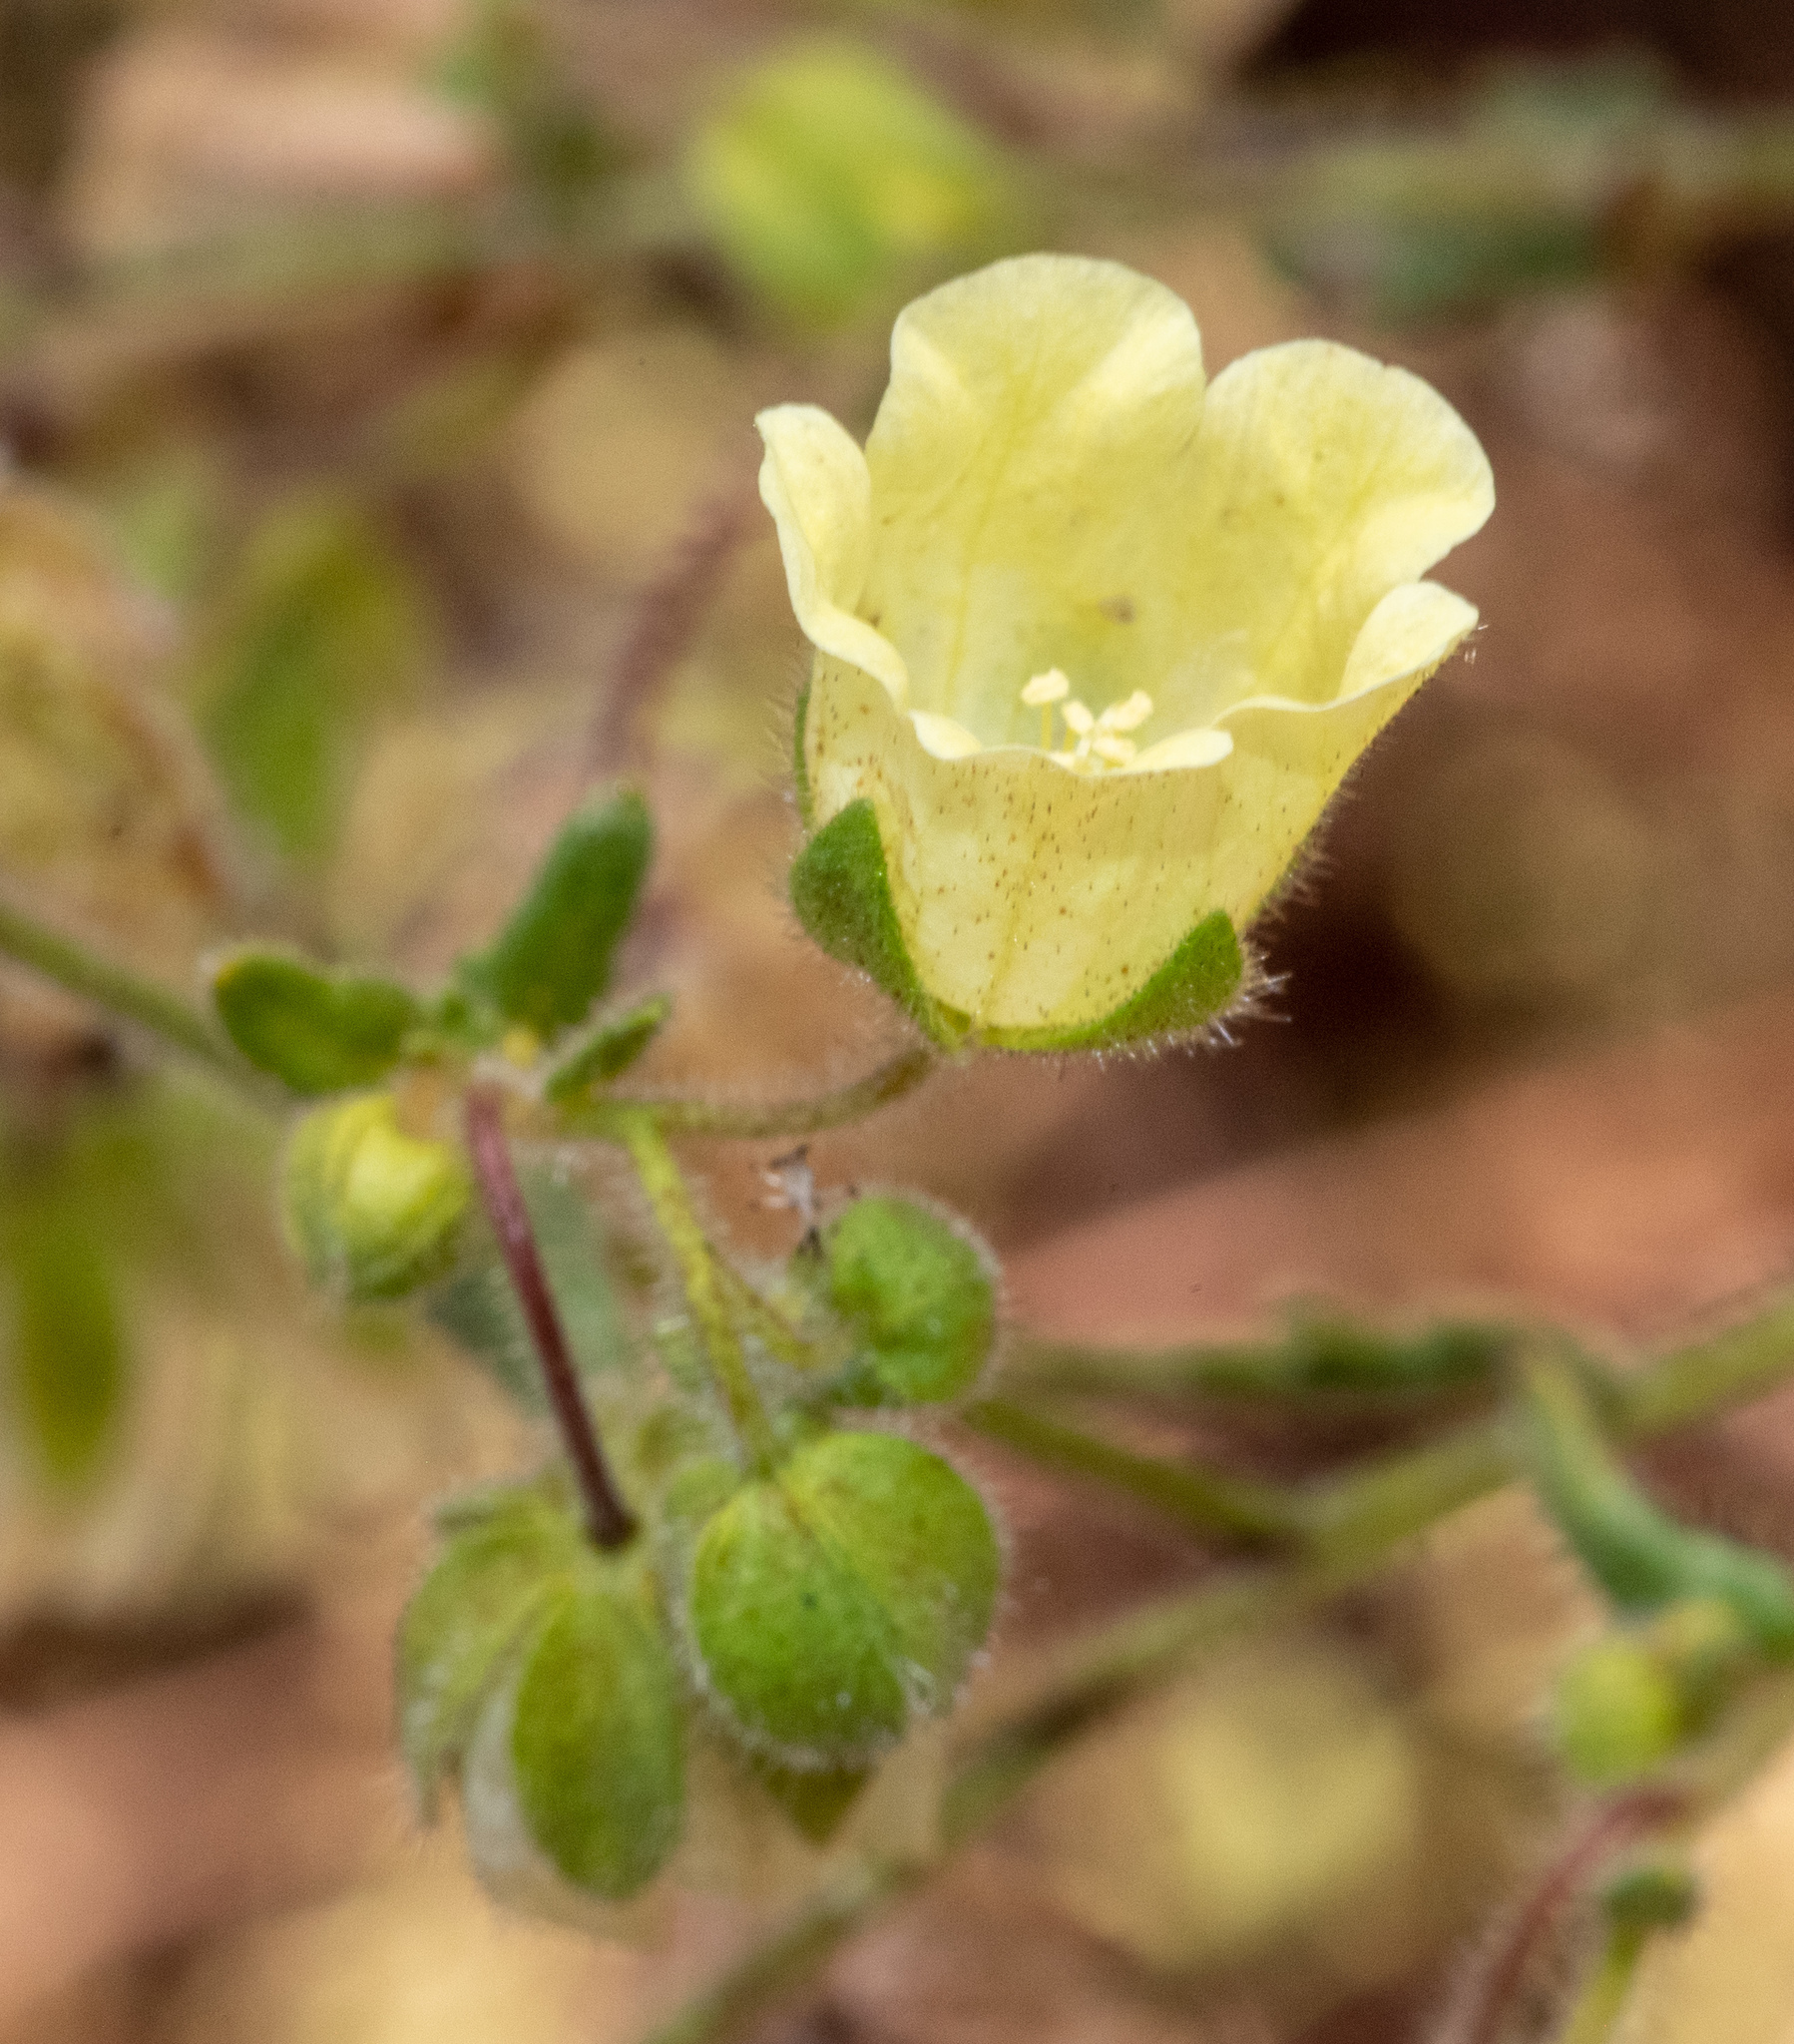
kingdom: Plantae
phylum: Tracheophyta
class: Magnoliopsida
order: Boraginales
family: Hydrophyllaceae
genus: Emmenanthe
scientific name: Emmenanthe penduliflora
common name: Whispering-bells
